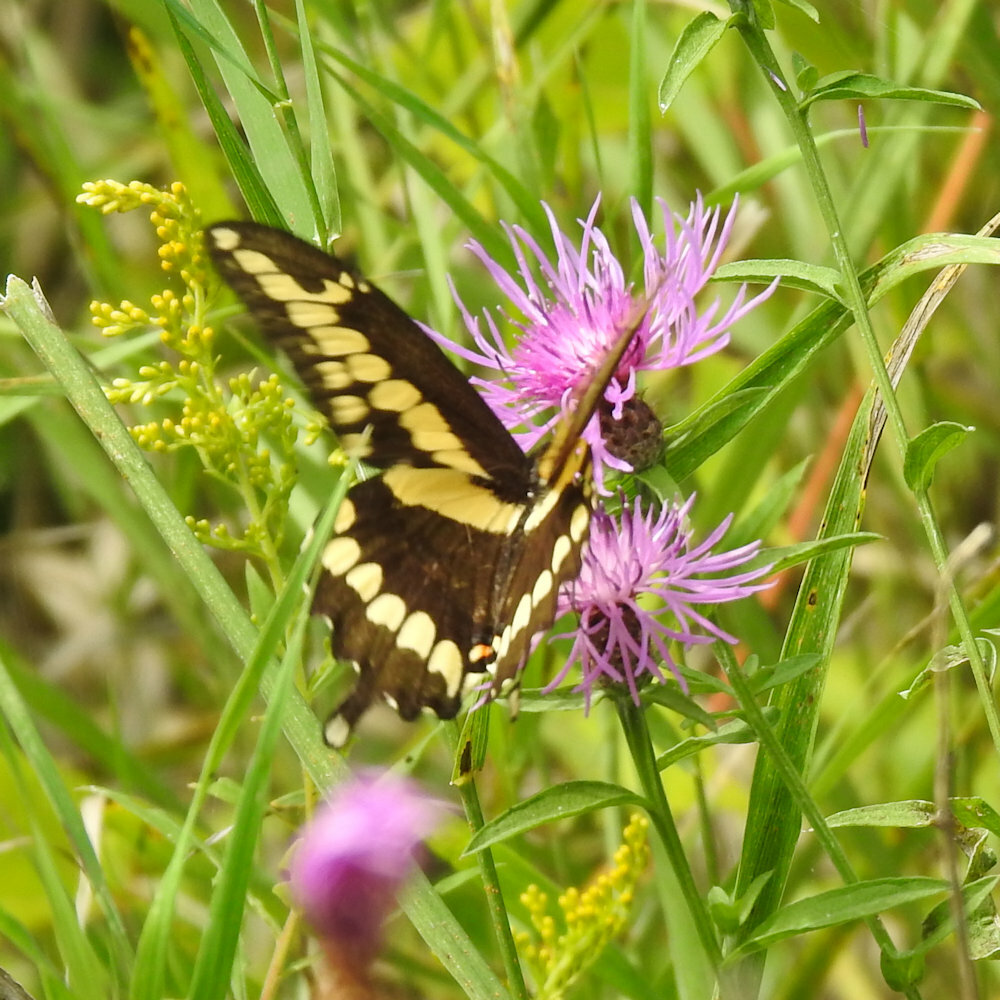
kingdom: Animalia
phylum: Arthropoda
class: Insecta
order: Lepidoptera
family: Papilionidae
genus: Papilio
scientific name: Papilio cresphontes
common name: Giant swallowtail
